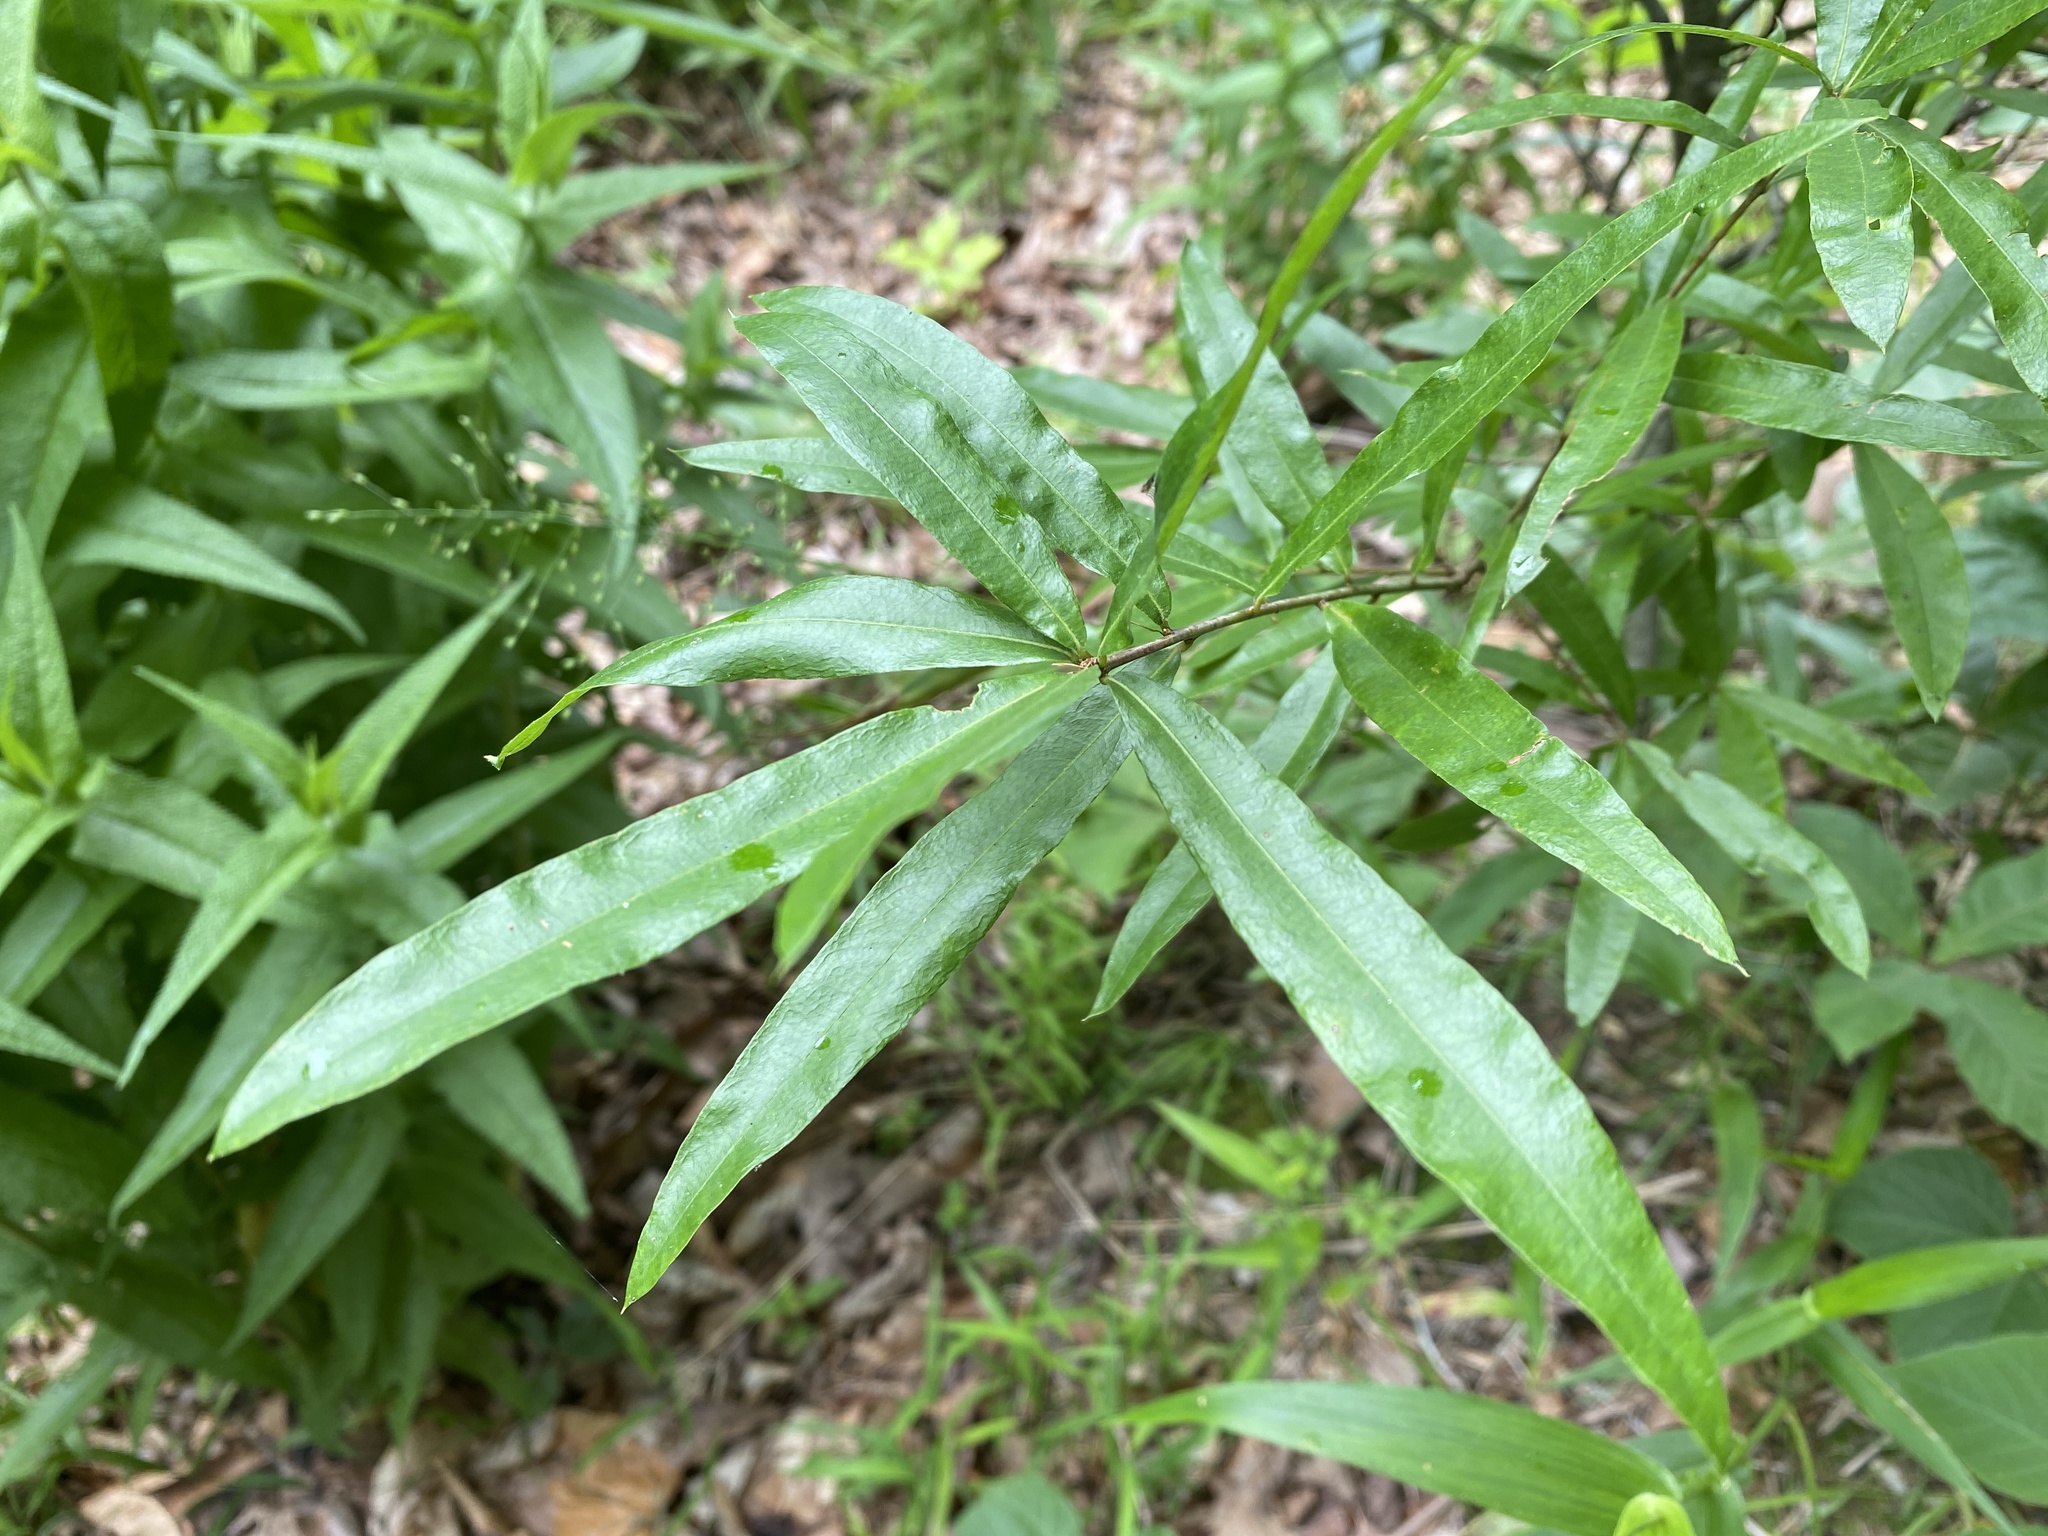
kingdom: Plantae
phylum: Tracheophyta
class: Magnoliopsida
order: Fagales
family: Fagaceae
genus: Quercus
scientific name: Quercus phellos
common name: Willow oak
